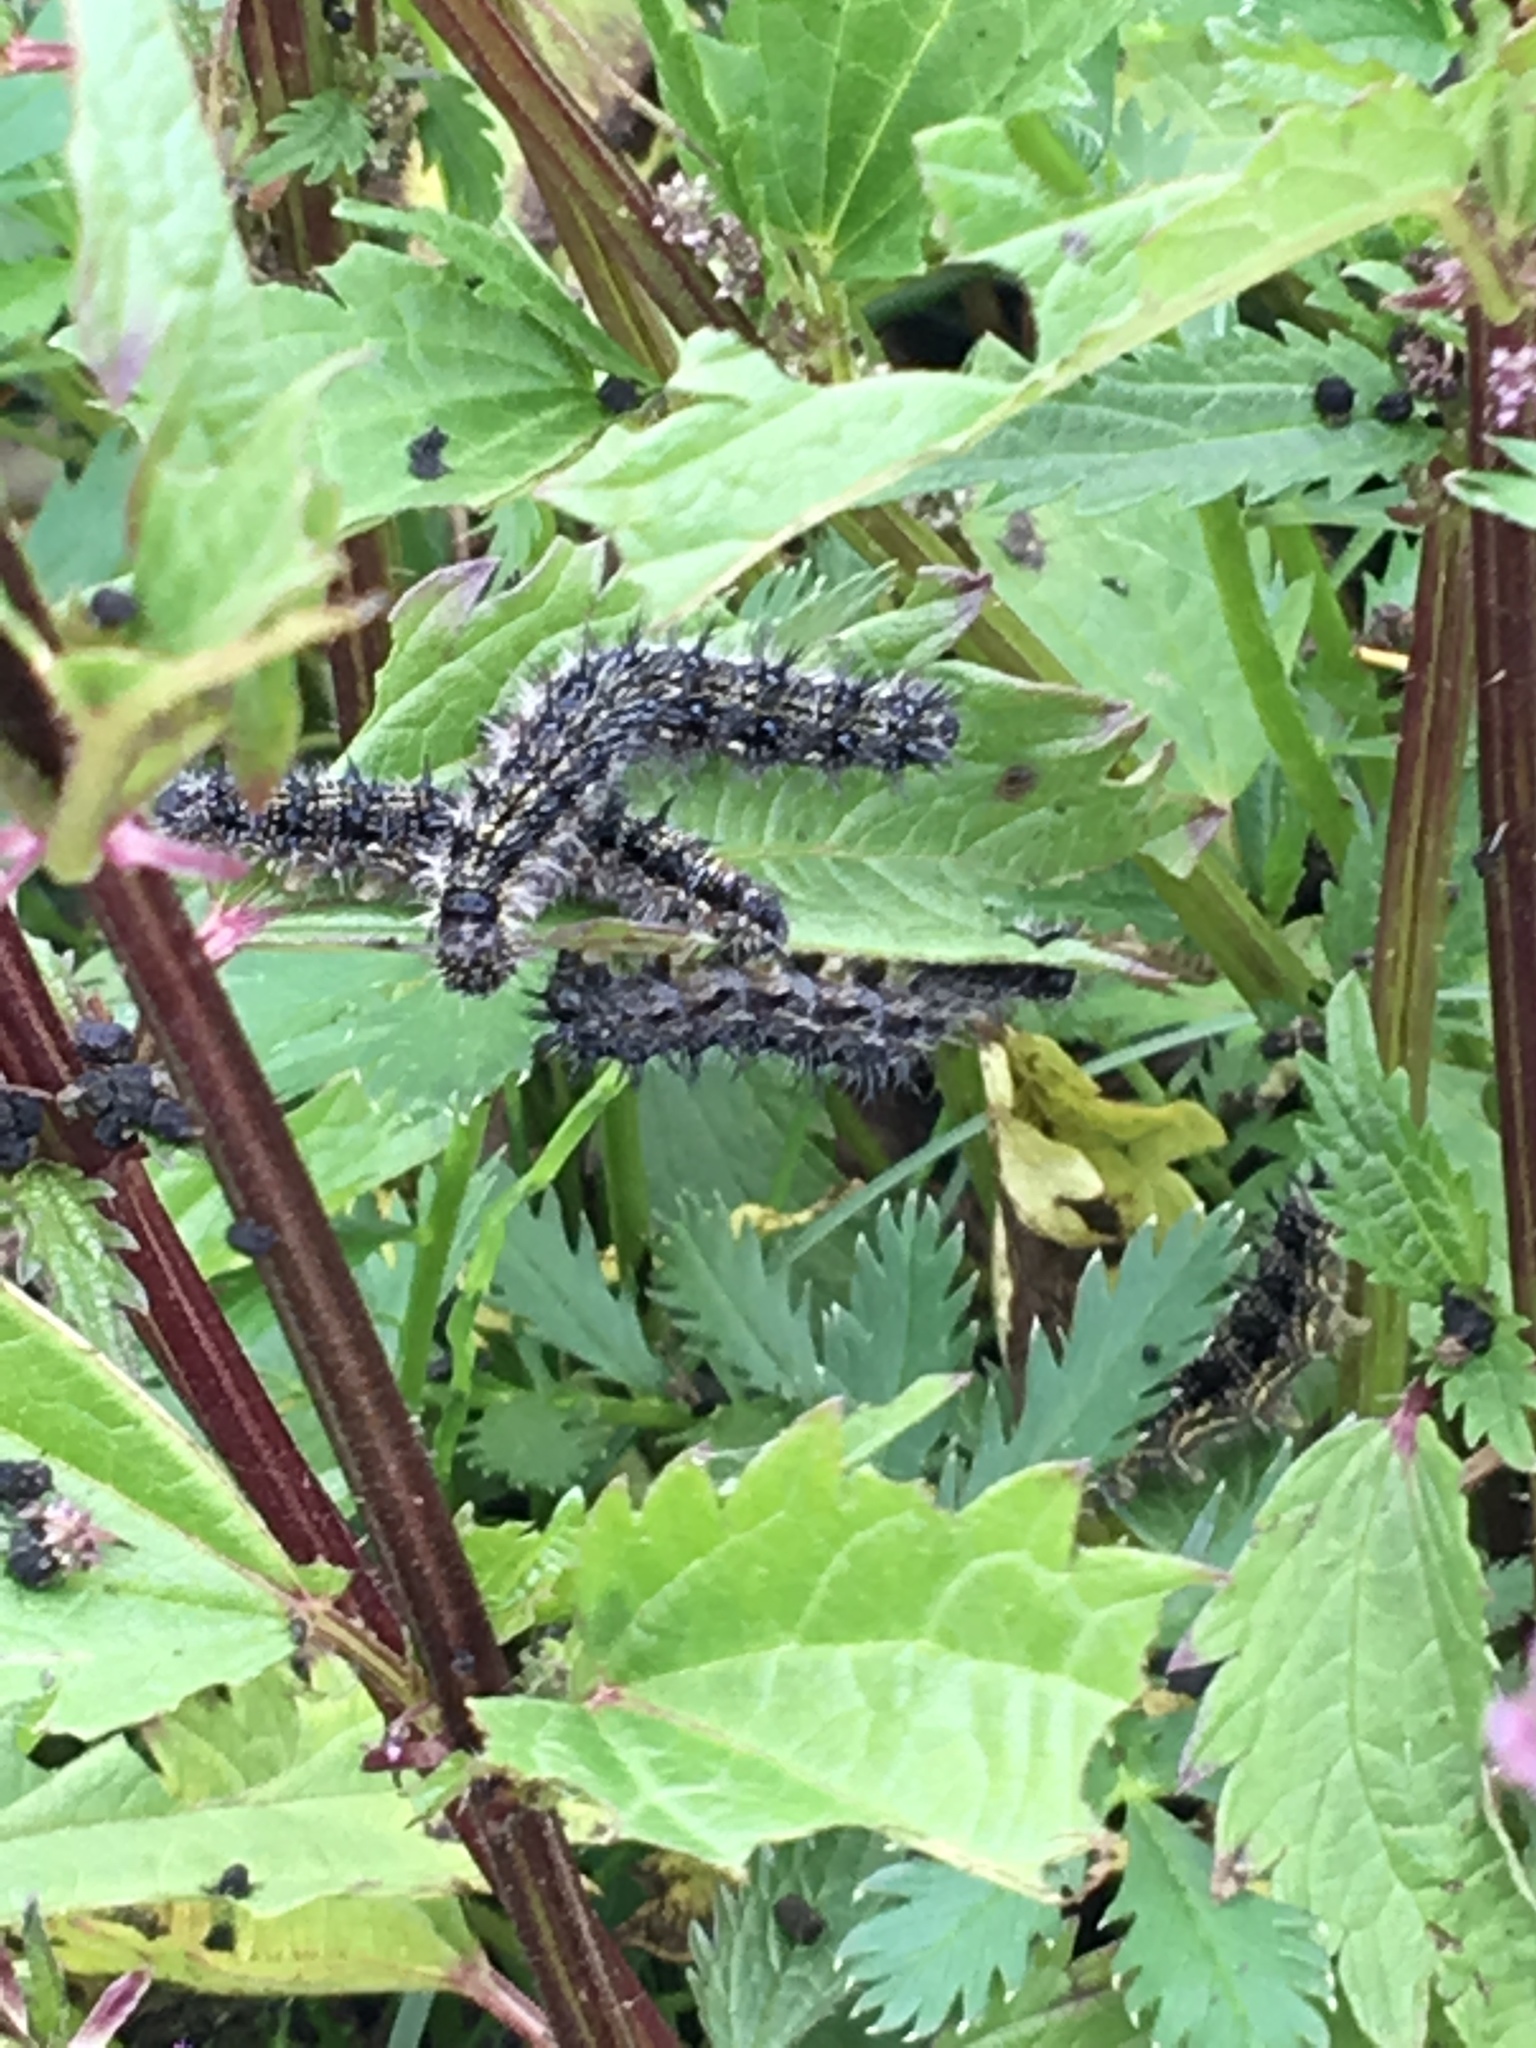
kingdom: Animalia
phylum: Arthropoda
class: Insecta
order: Lepidoptera
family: Nymphalidae
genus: Aglais
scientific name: Aglais urticae
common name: Small tortoiseshell
